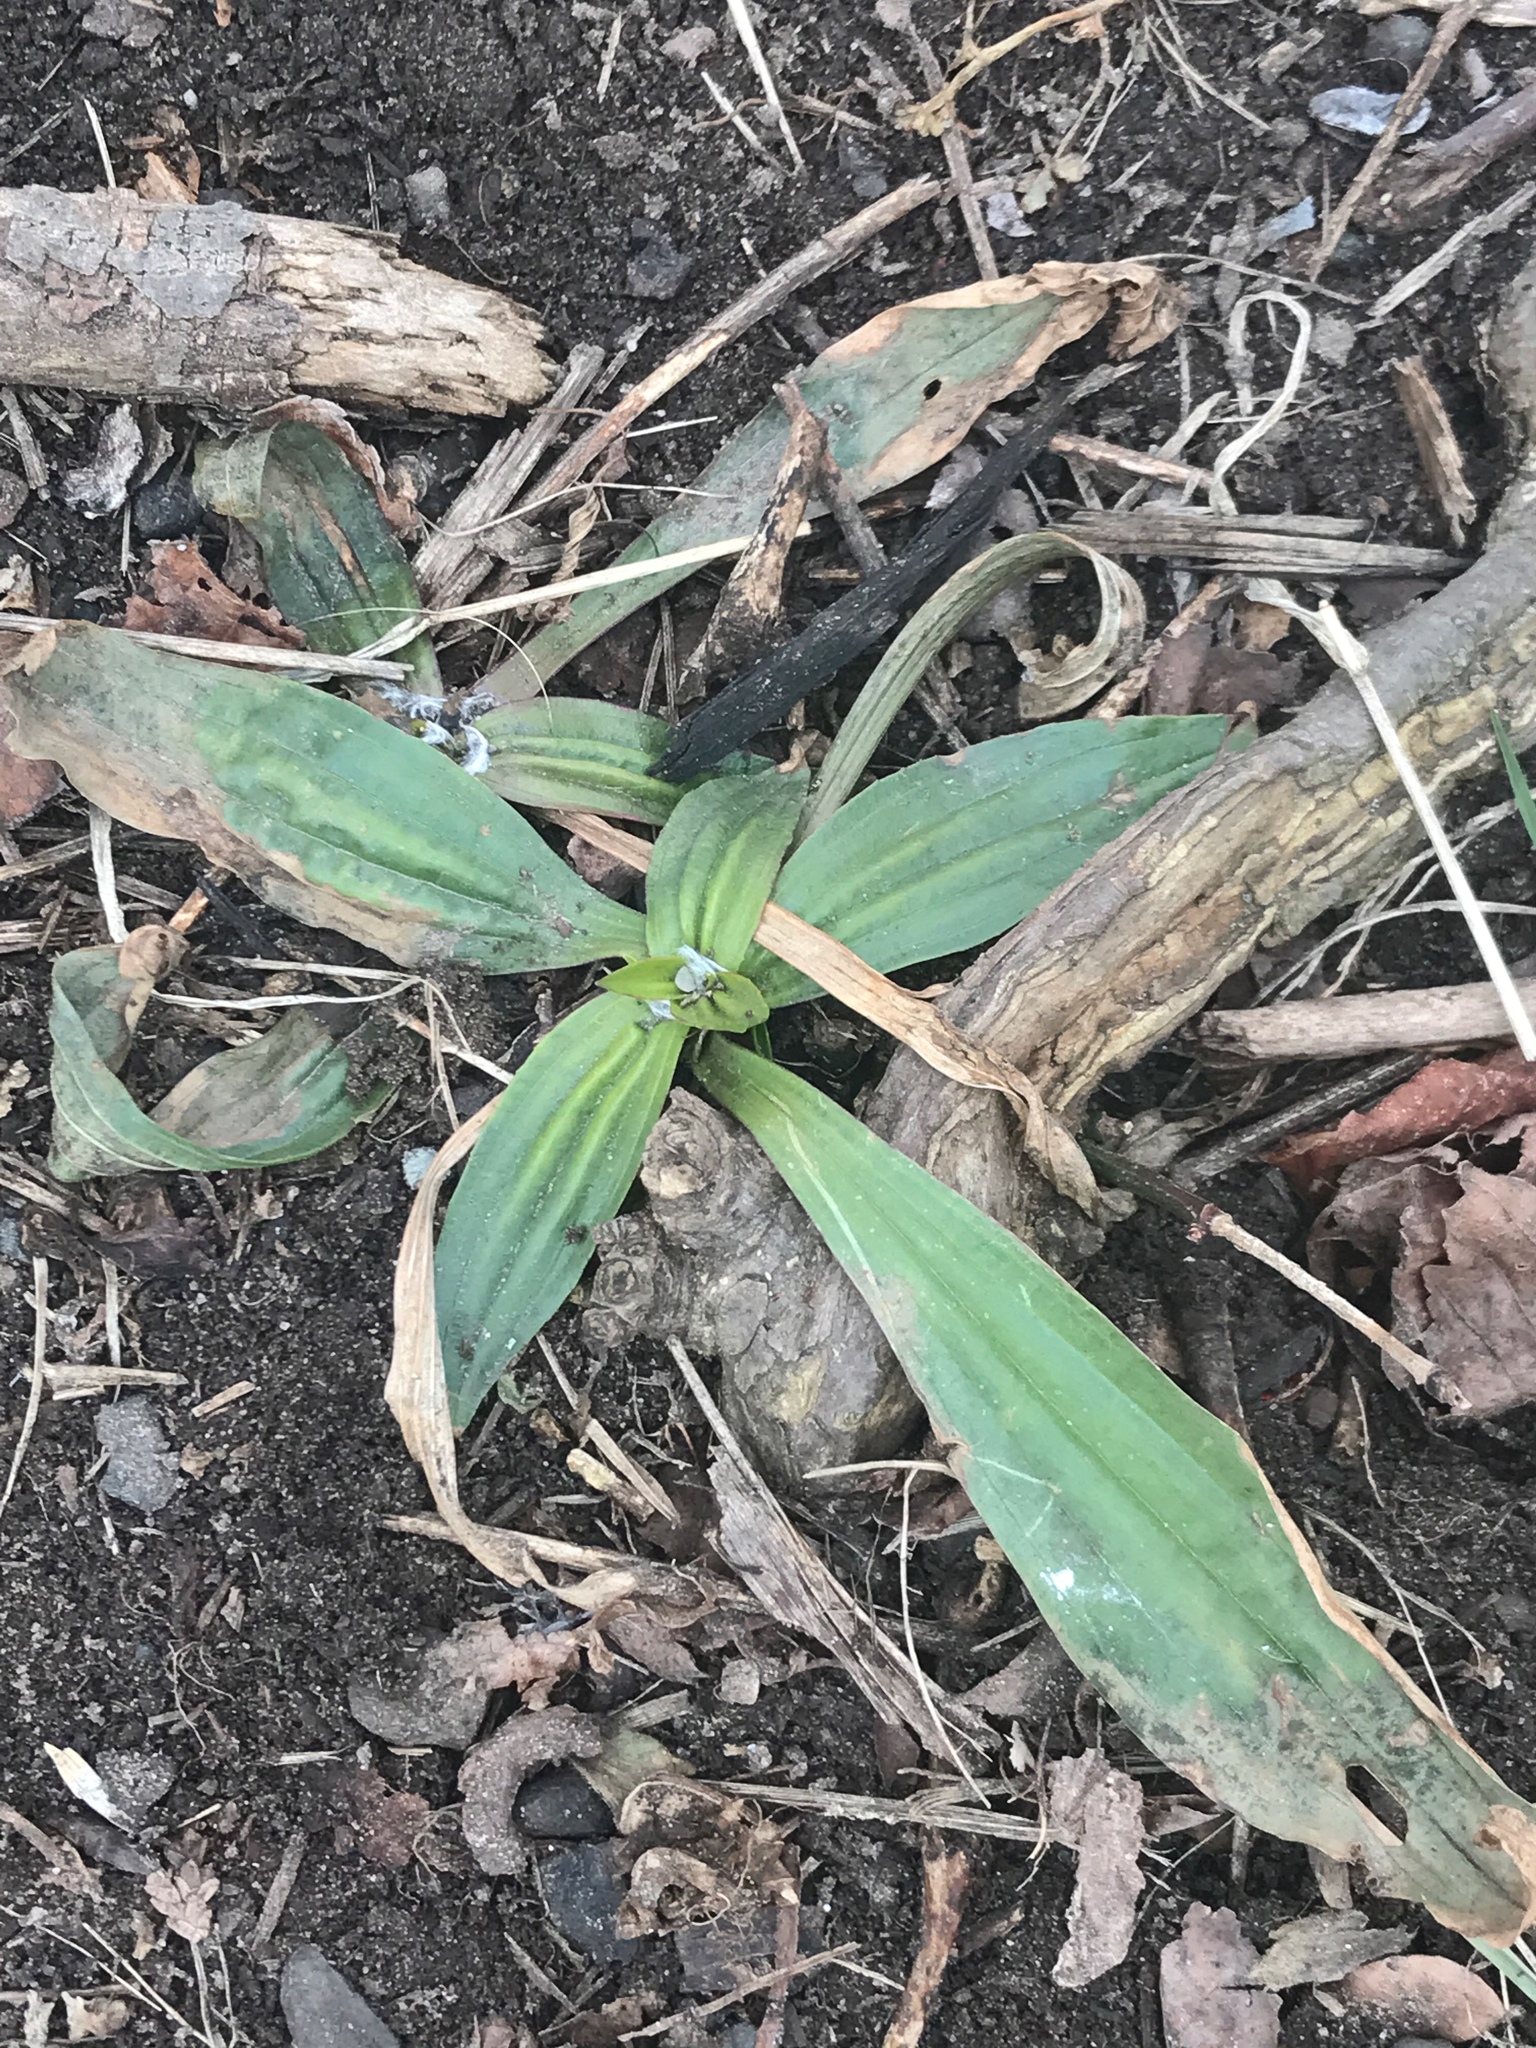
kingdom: Plantae
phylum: Tracheophyta
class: Magnoliopsida
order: Lamiales
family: Plantaginaceae
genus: Plantago
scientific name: Plantago lanceolata
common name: Ribwort plantain
